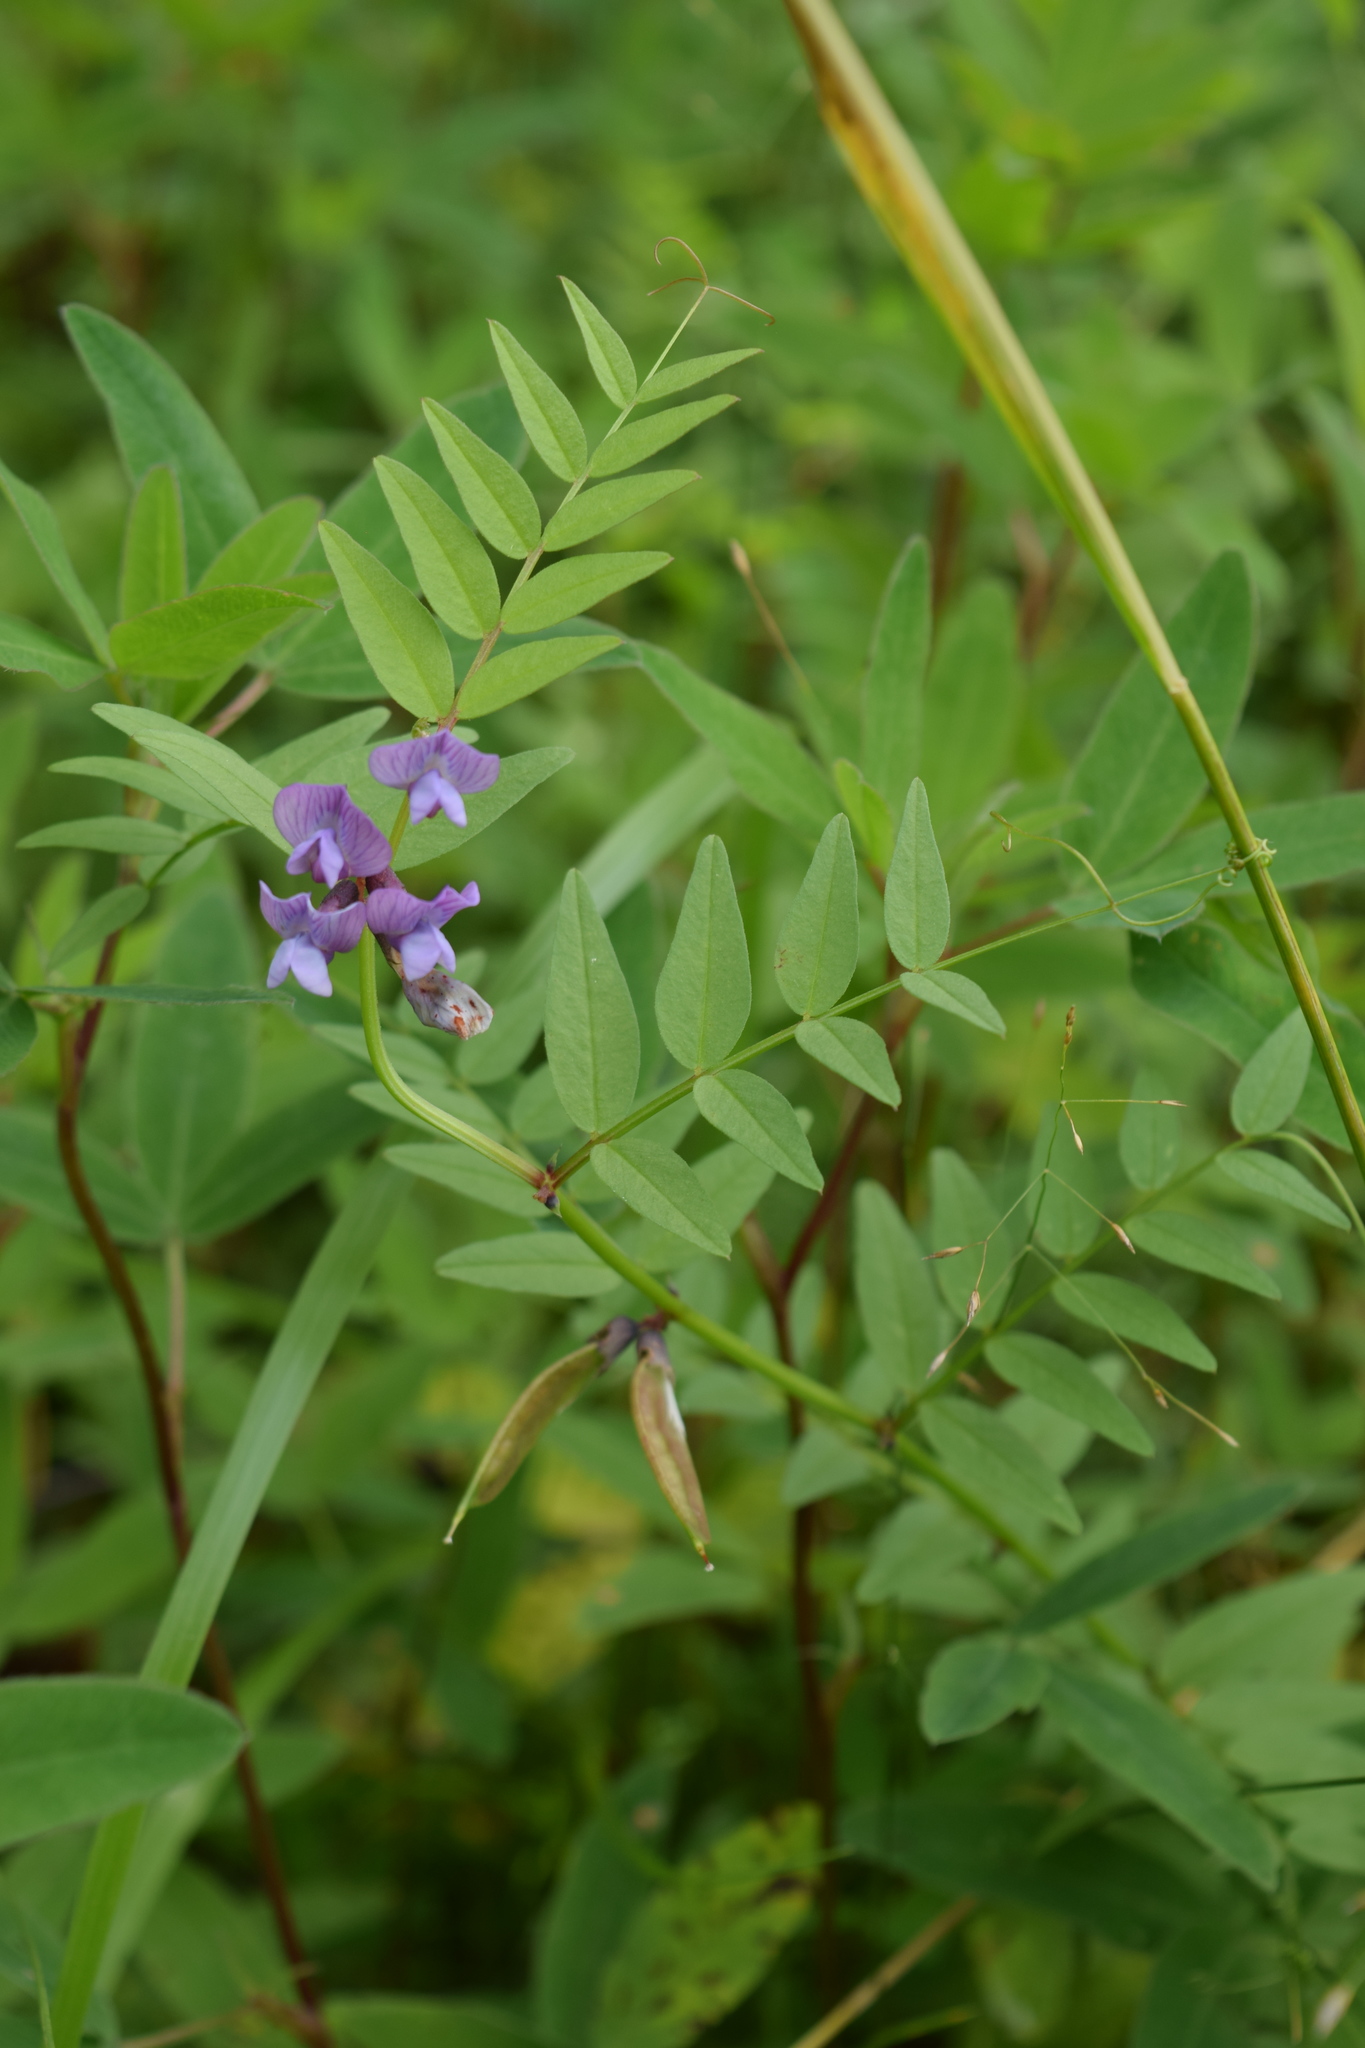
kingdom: Plantae
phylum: Tracheophyta
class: Magnoliopsida
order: Fabales
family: Fabaceae
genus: Vicia
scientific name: Vicia sepium
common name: Bush vetch
